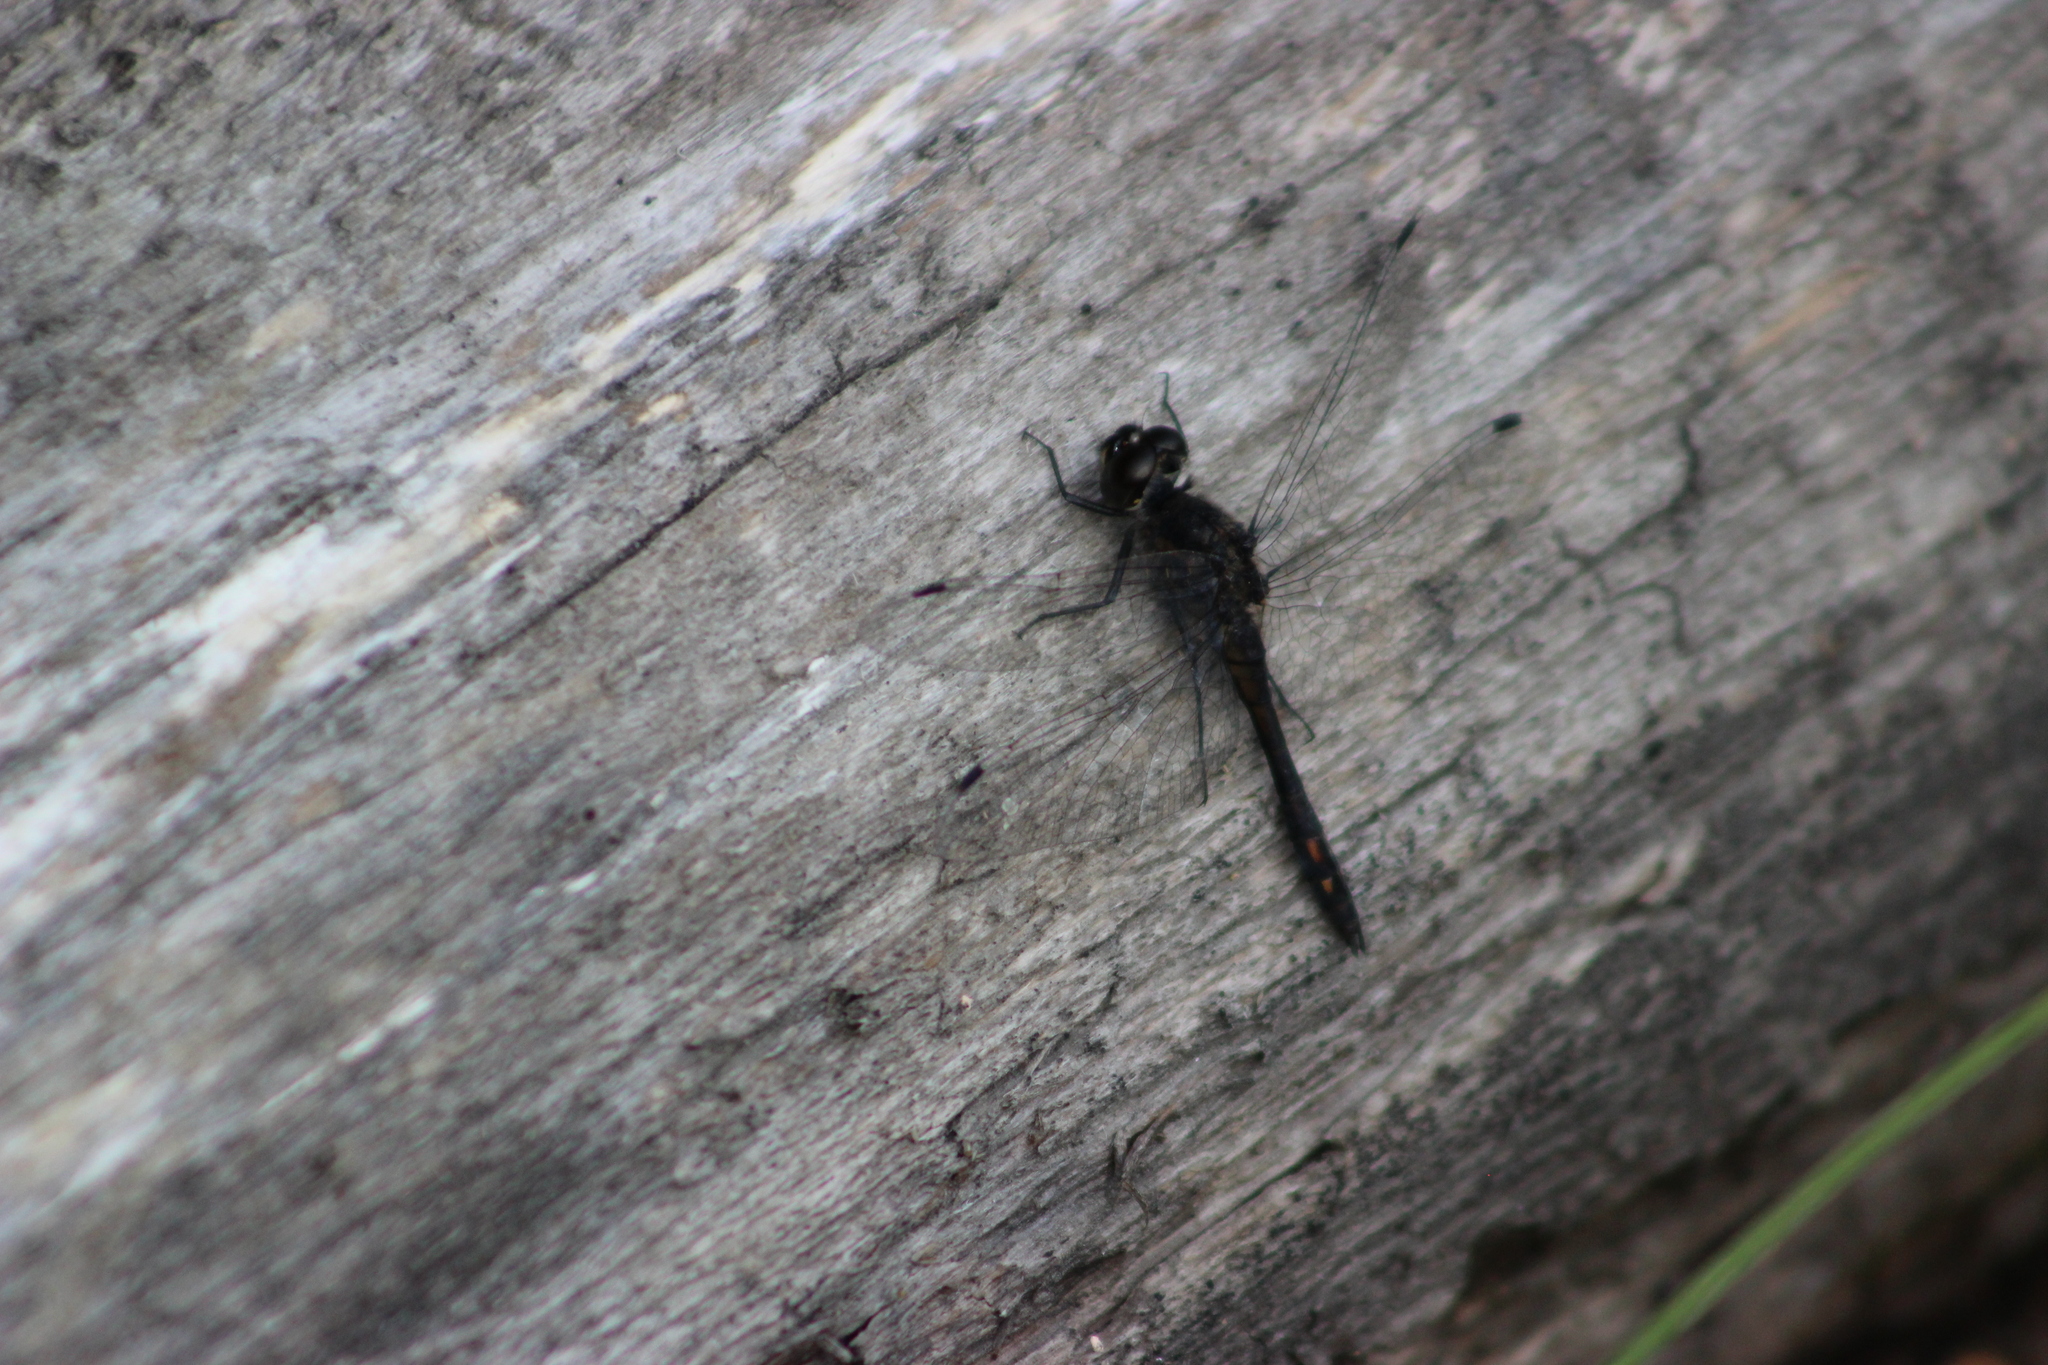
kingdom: Animalia
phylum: Arthropoda
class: Insecta
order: Odonata
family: Libellulidae
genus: Sympetrum
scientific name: Sympetrum danae
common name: Black darter
